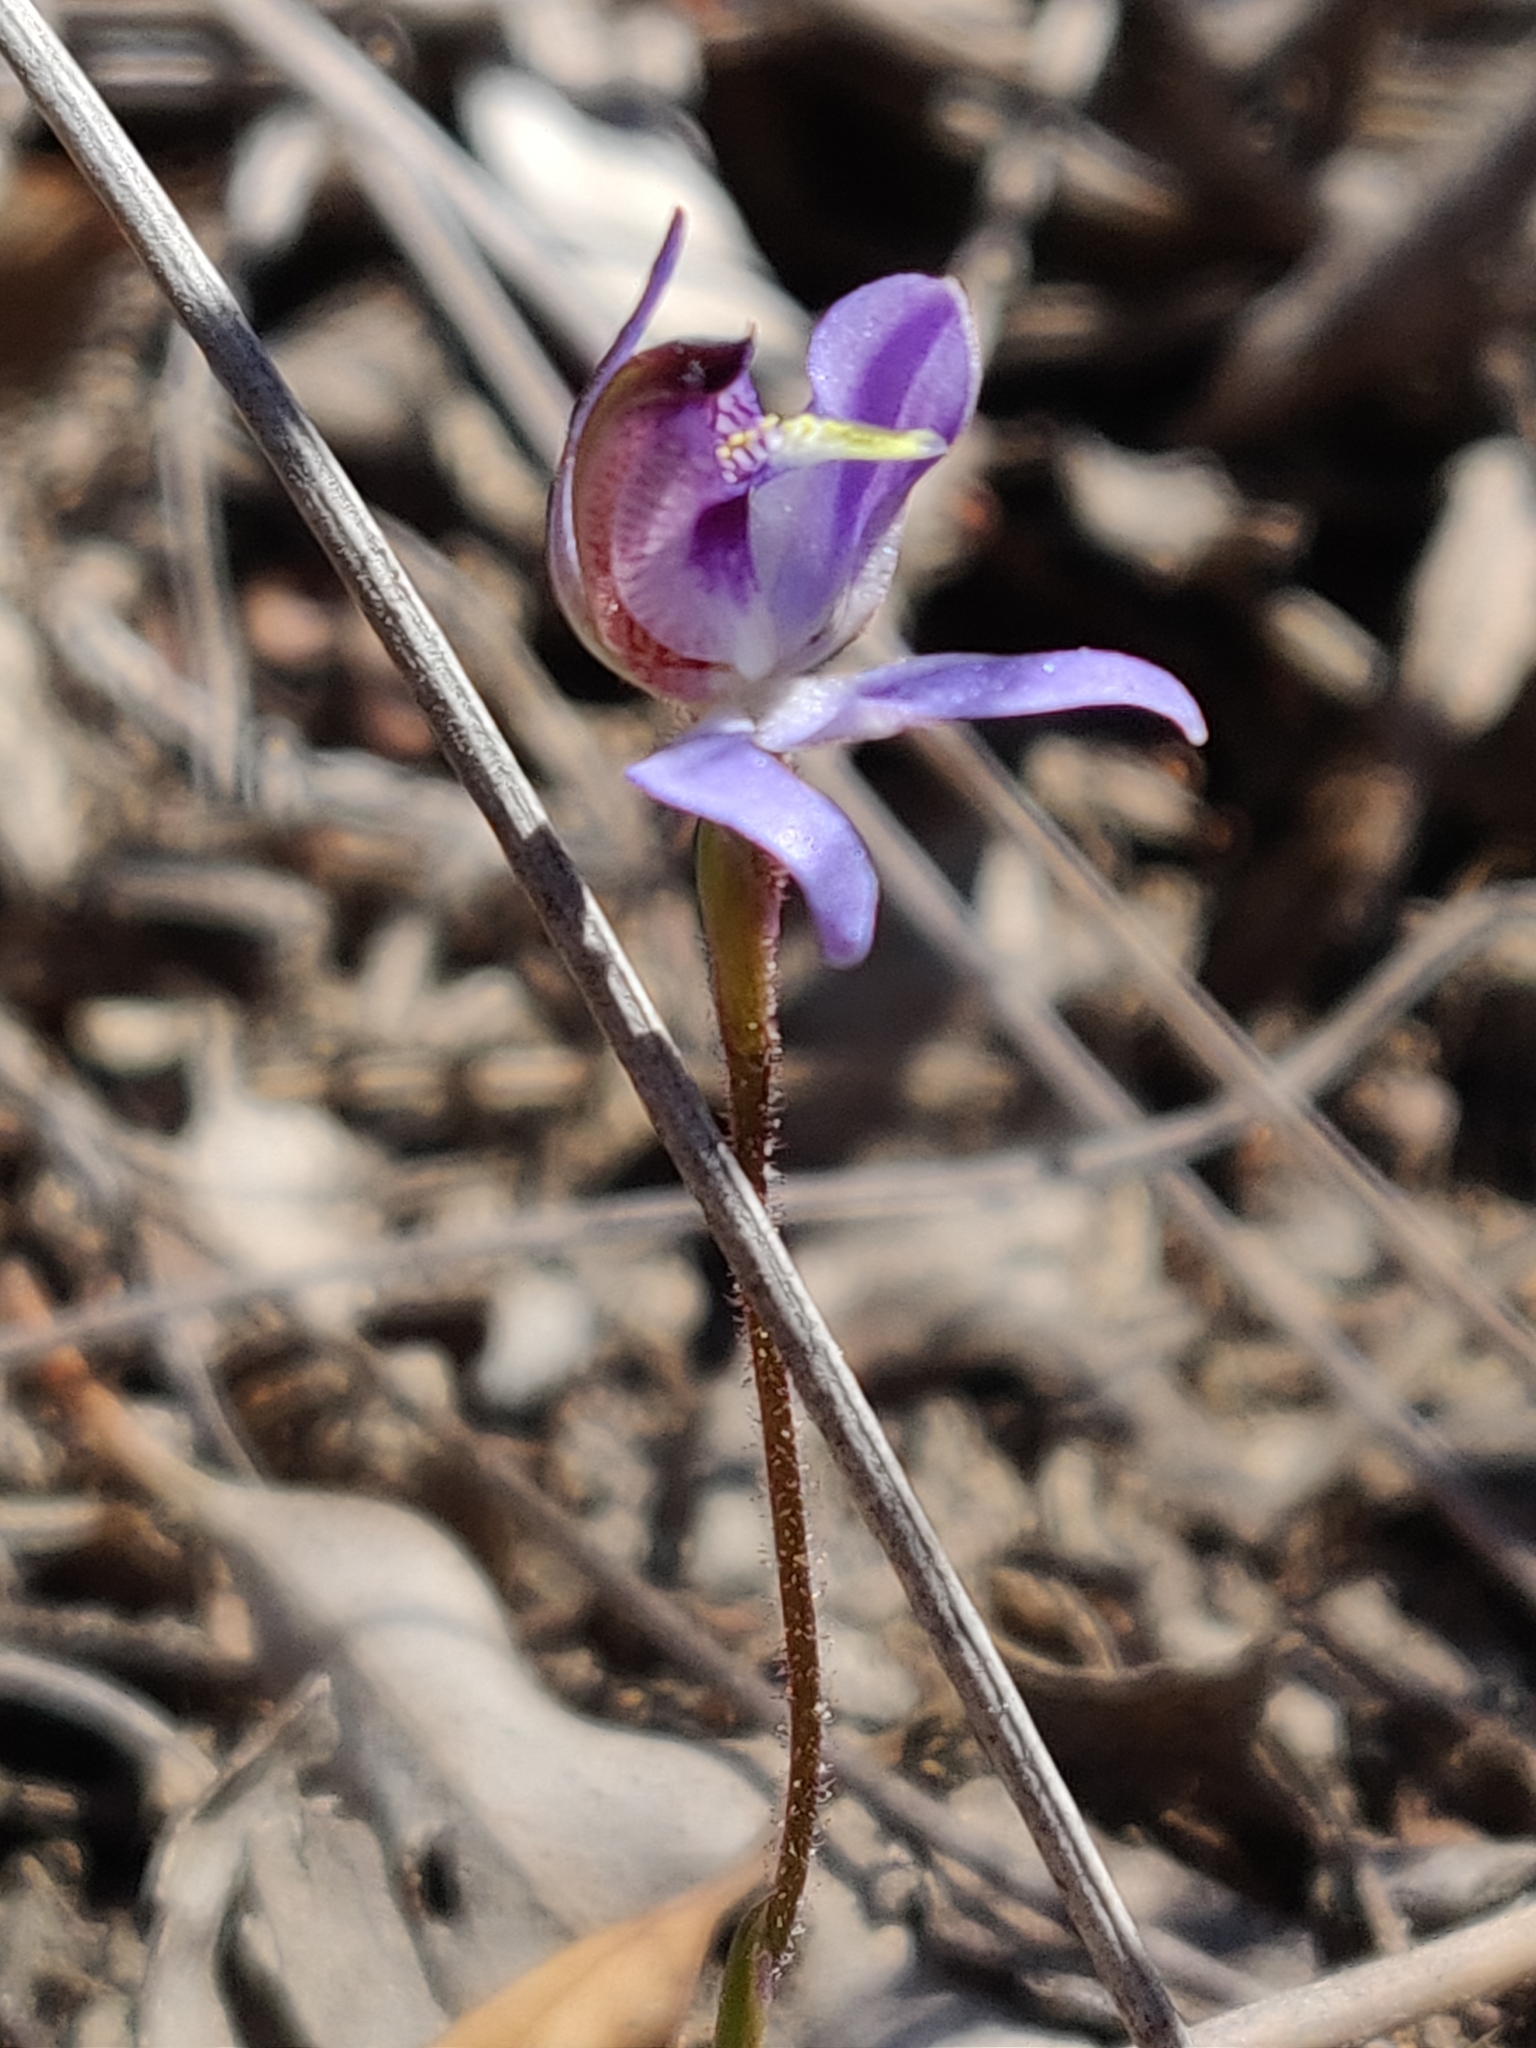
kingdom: Plantae
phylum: Tracheophyta
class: Liliopsida
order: Asparagales
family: Orchidaceae
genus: Caladenia
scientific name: Caladenia caerulea
